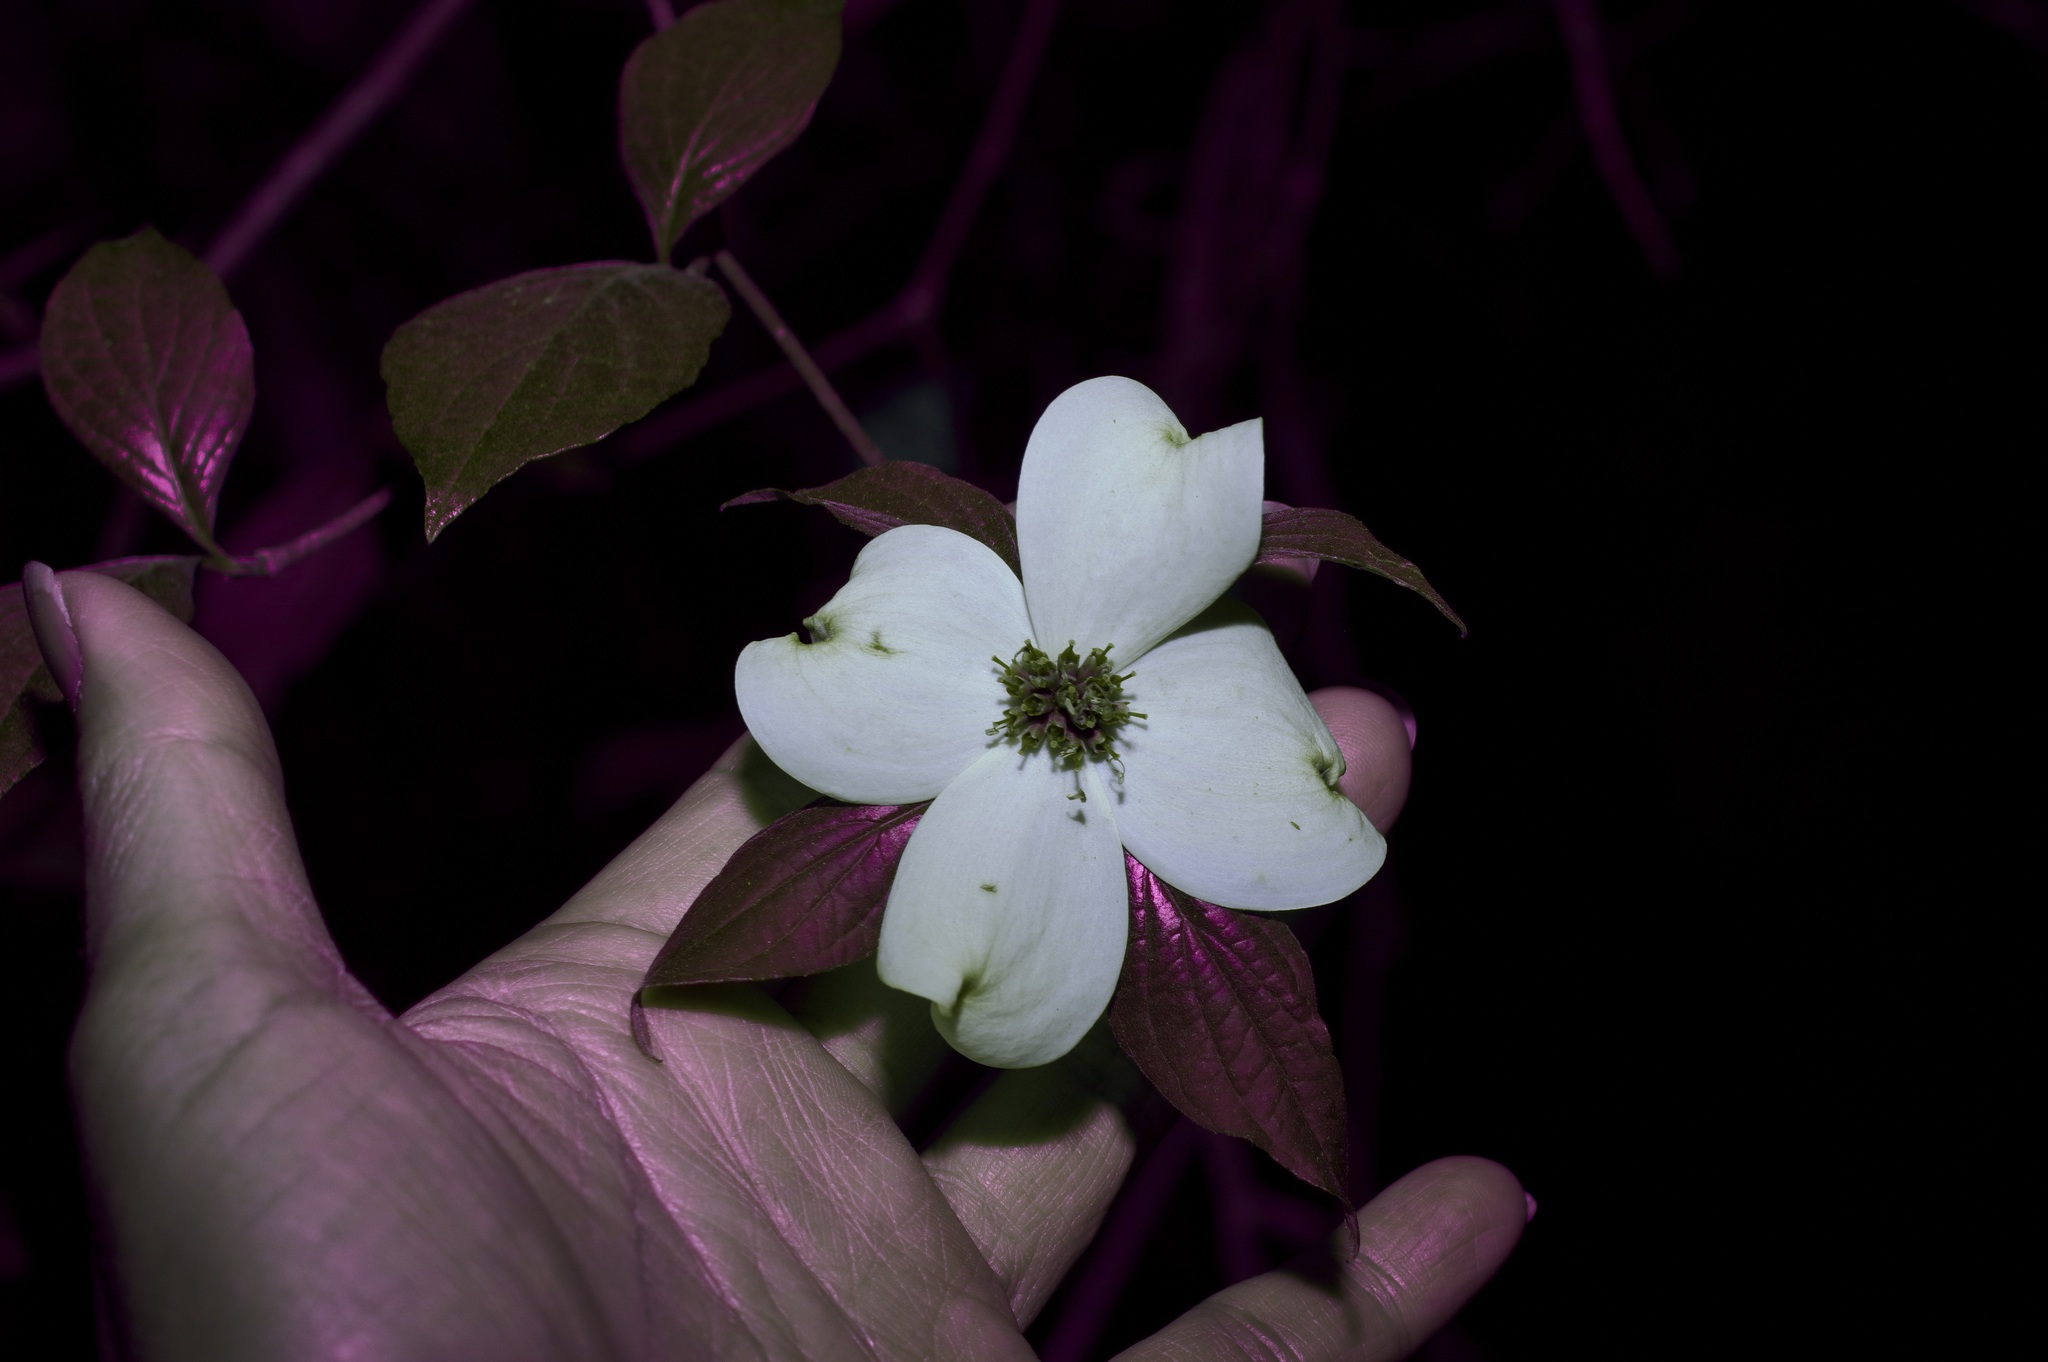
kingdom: Plantae
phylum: Tracheophyta
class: Magnoliopsida
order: Cornales
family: Cornaceae
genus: Cornus
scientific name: Cornus florida
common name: Flowering dogwood
